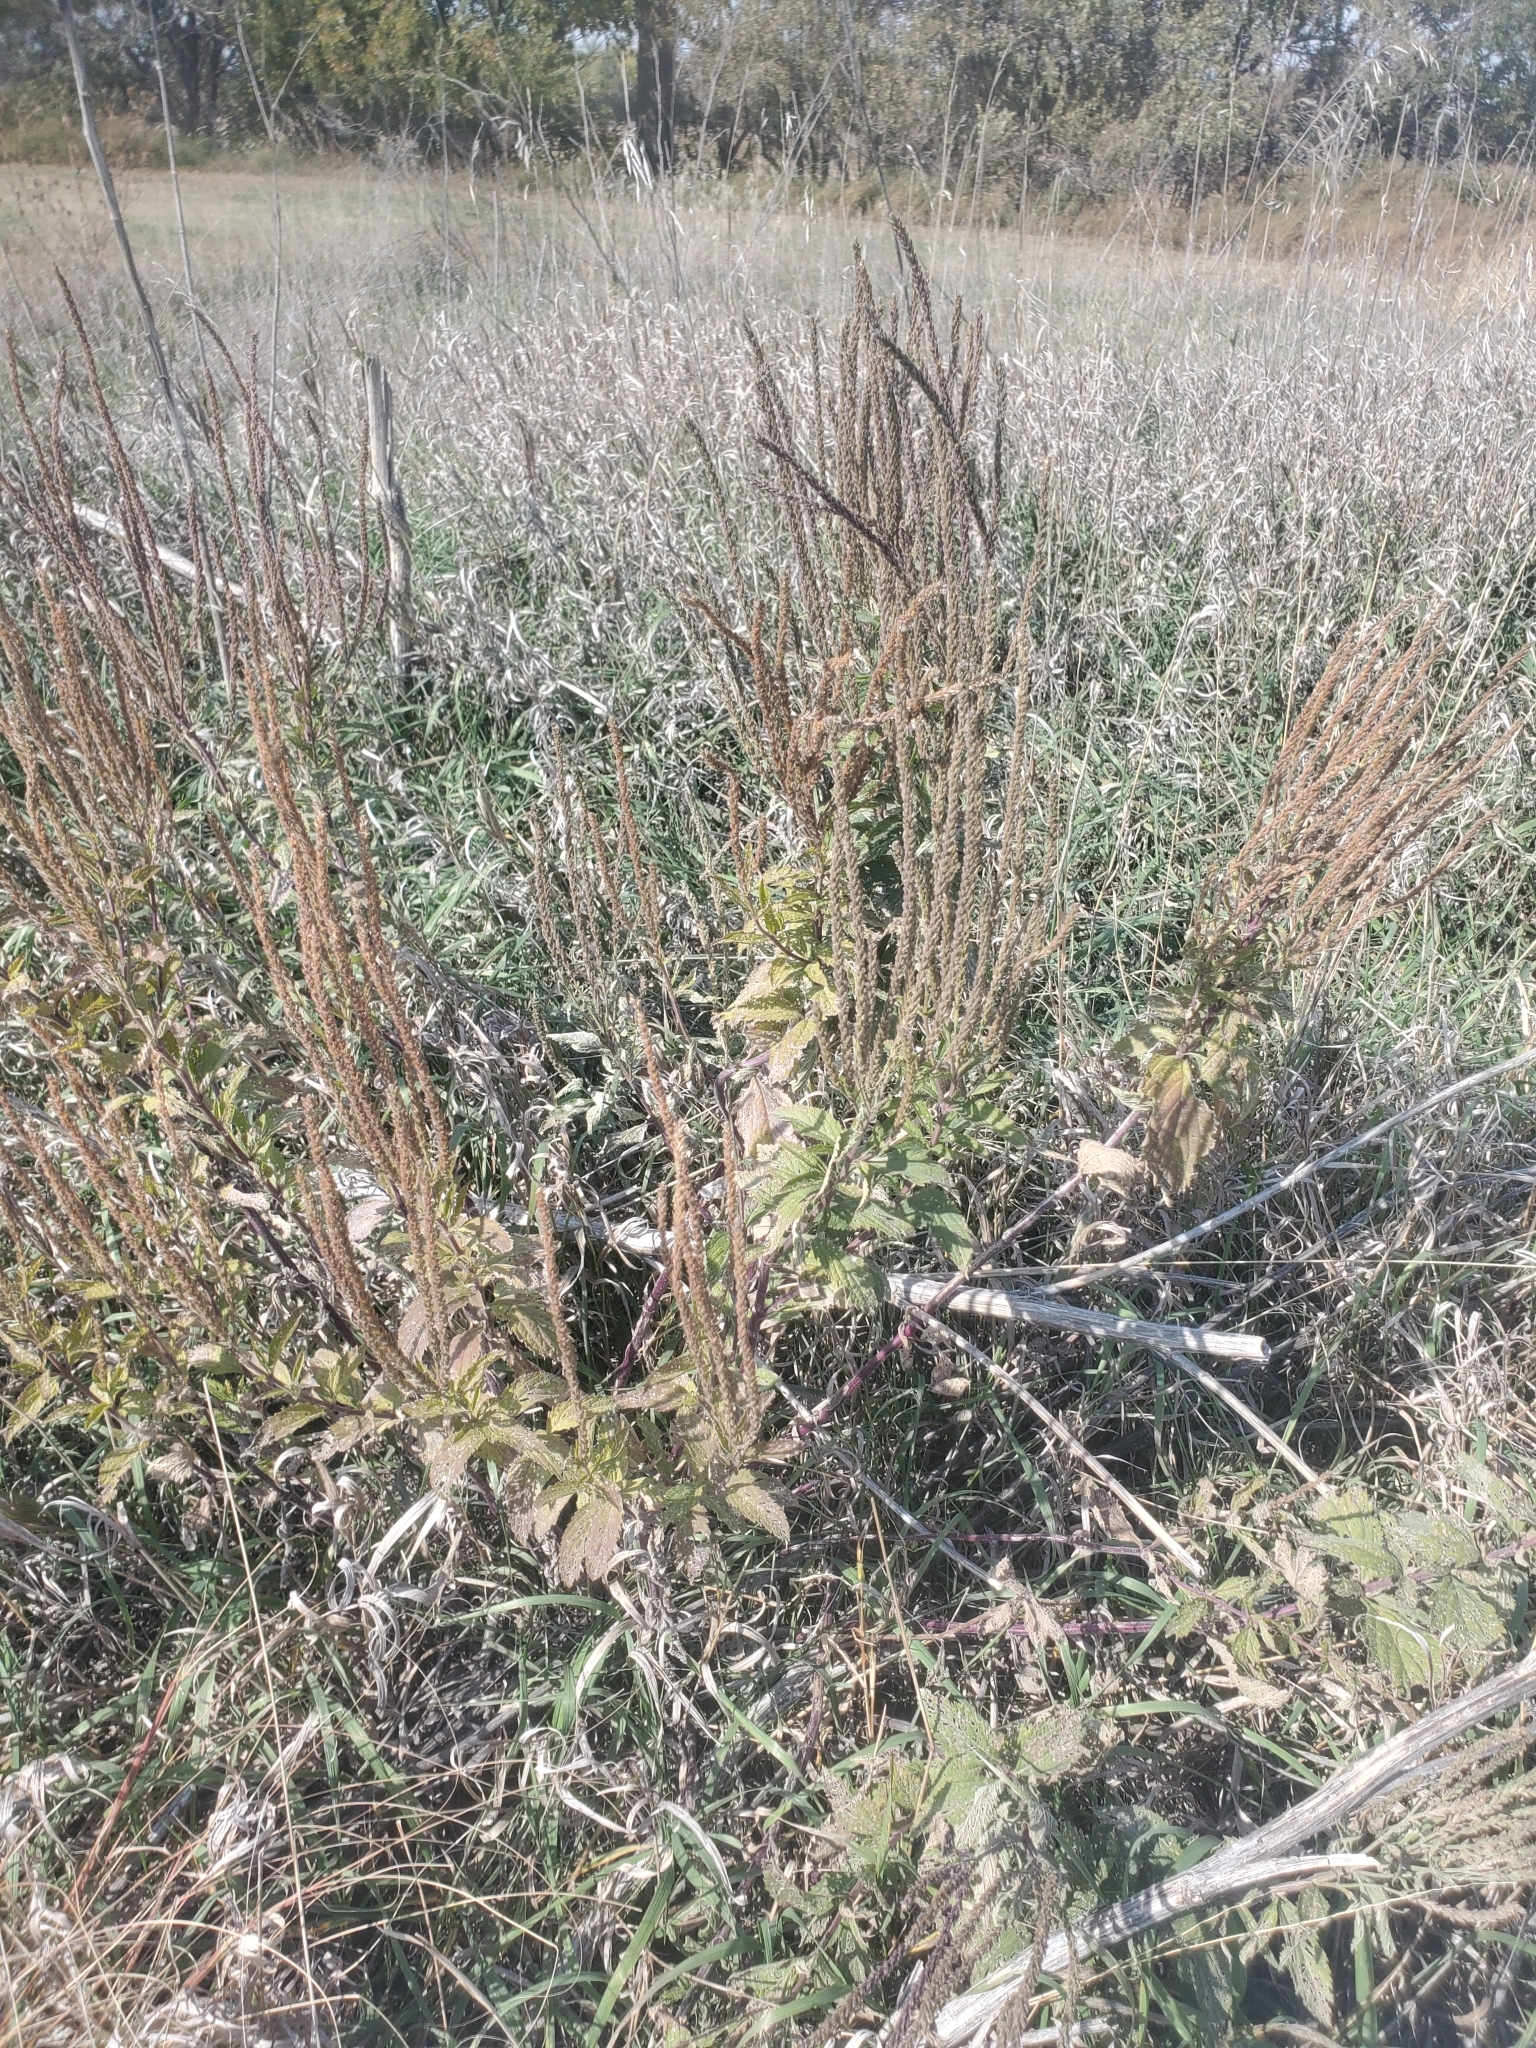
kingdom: Plantae
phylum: Tracheophyta
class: Magnoliopsida
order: Lamiales
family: Verbenaceae
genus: Verbena
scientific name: Verbena stricta
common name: Hoary vervain
